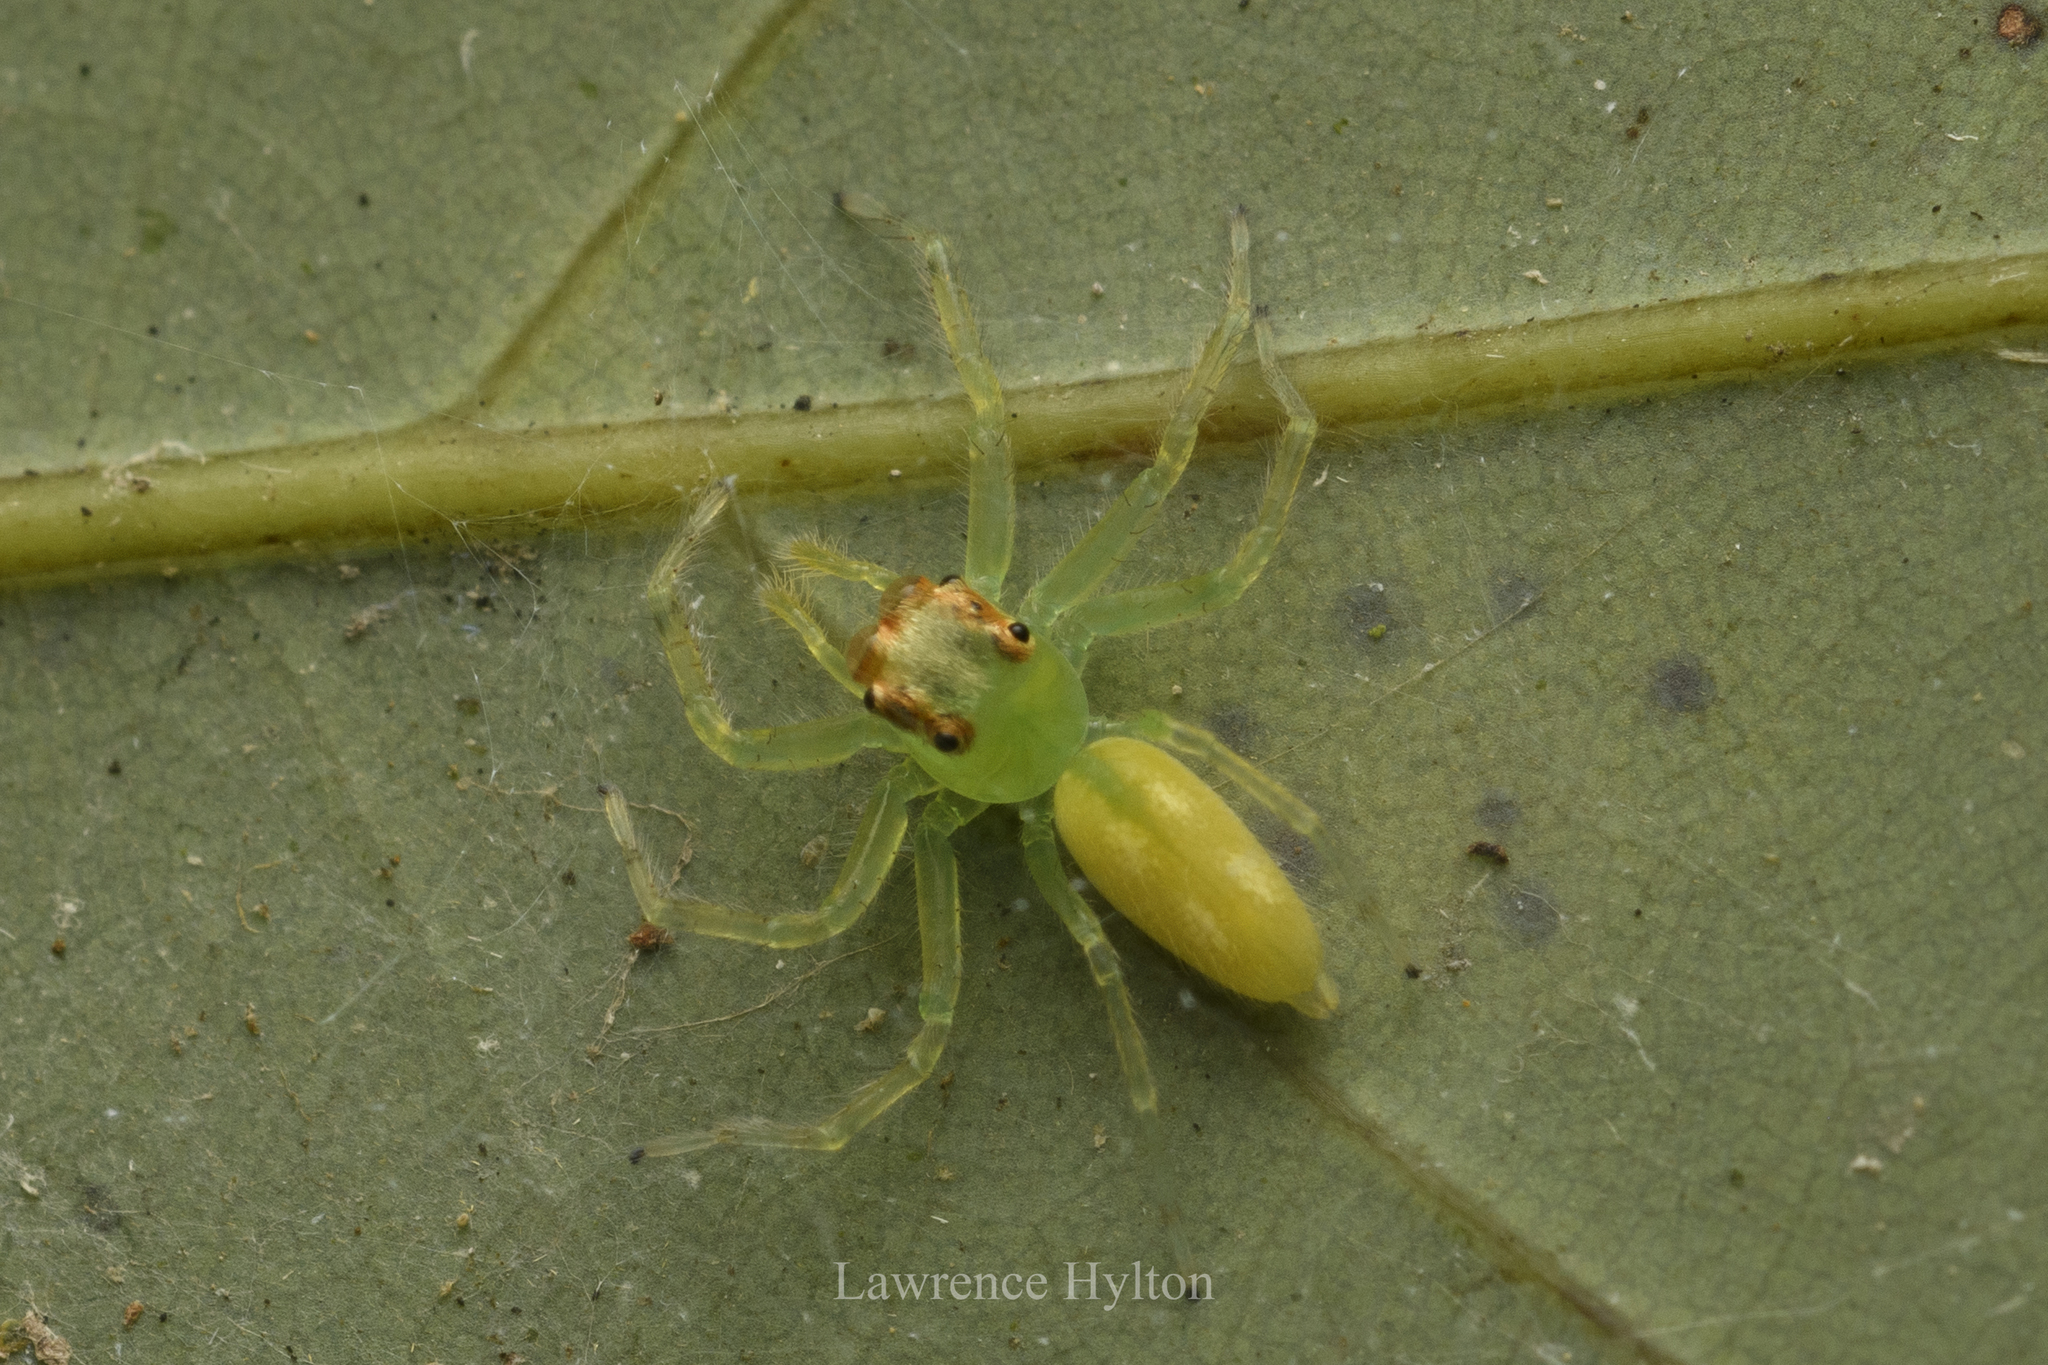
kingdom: Animalia
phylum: Arthropoda
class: Arachnida
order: Araneae
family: Salticidae
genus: Epeus
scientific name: Epeus glorius
